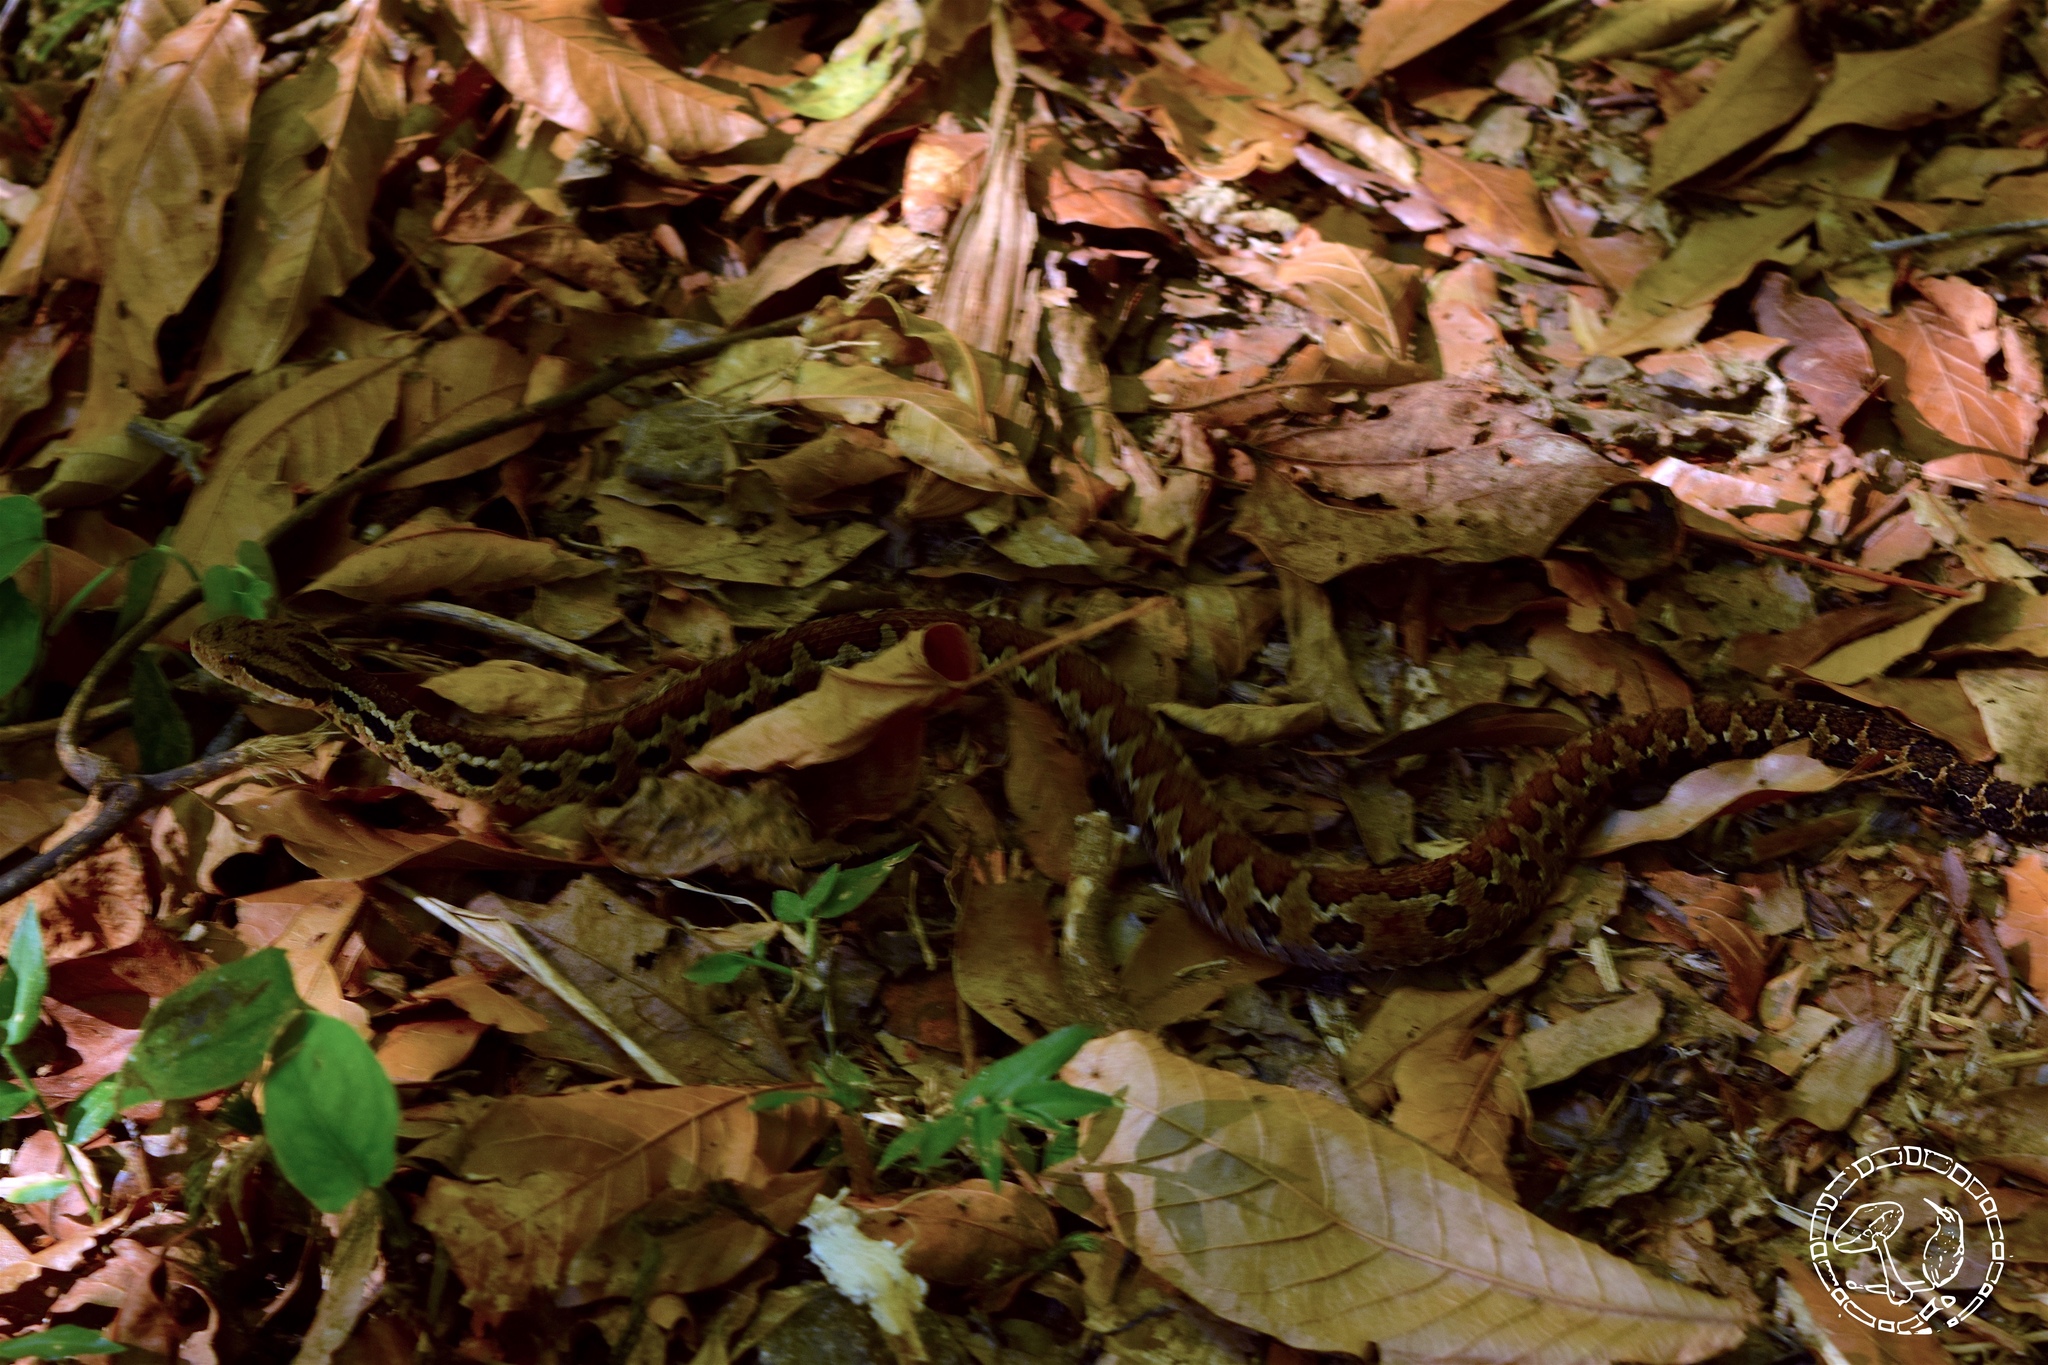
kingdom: Animalia
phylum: Chordata
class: Squamata
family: Viperidae
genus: Cerrophidion
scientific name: Cerrophidion godmani
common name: Godman's montane pit viper
